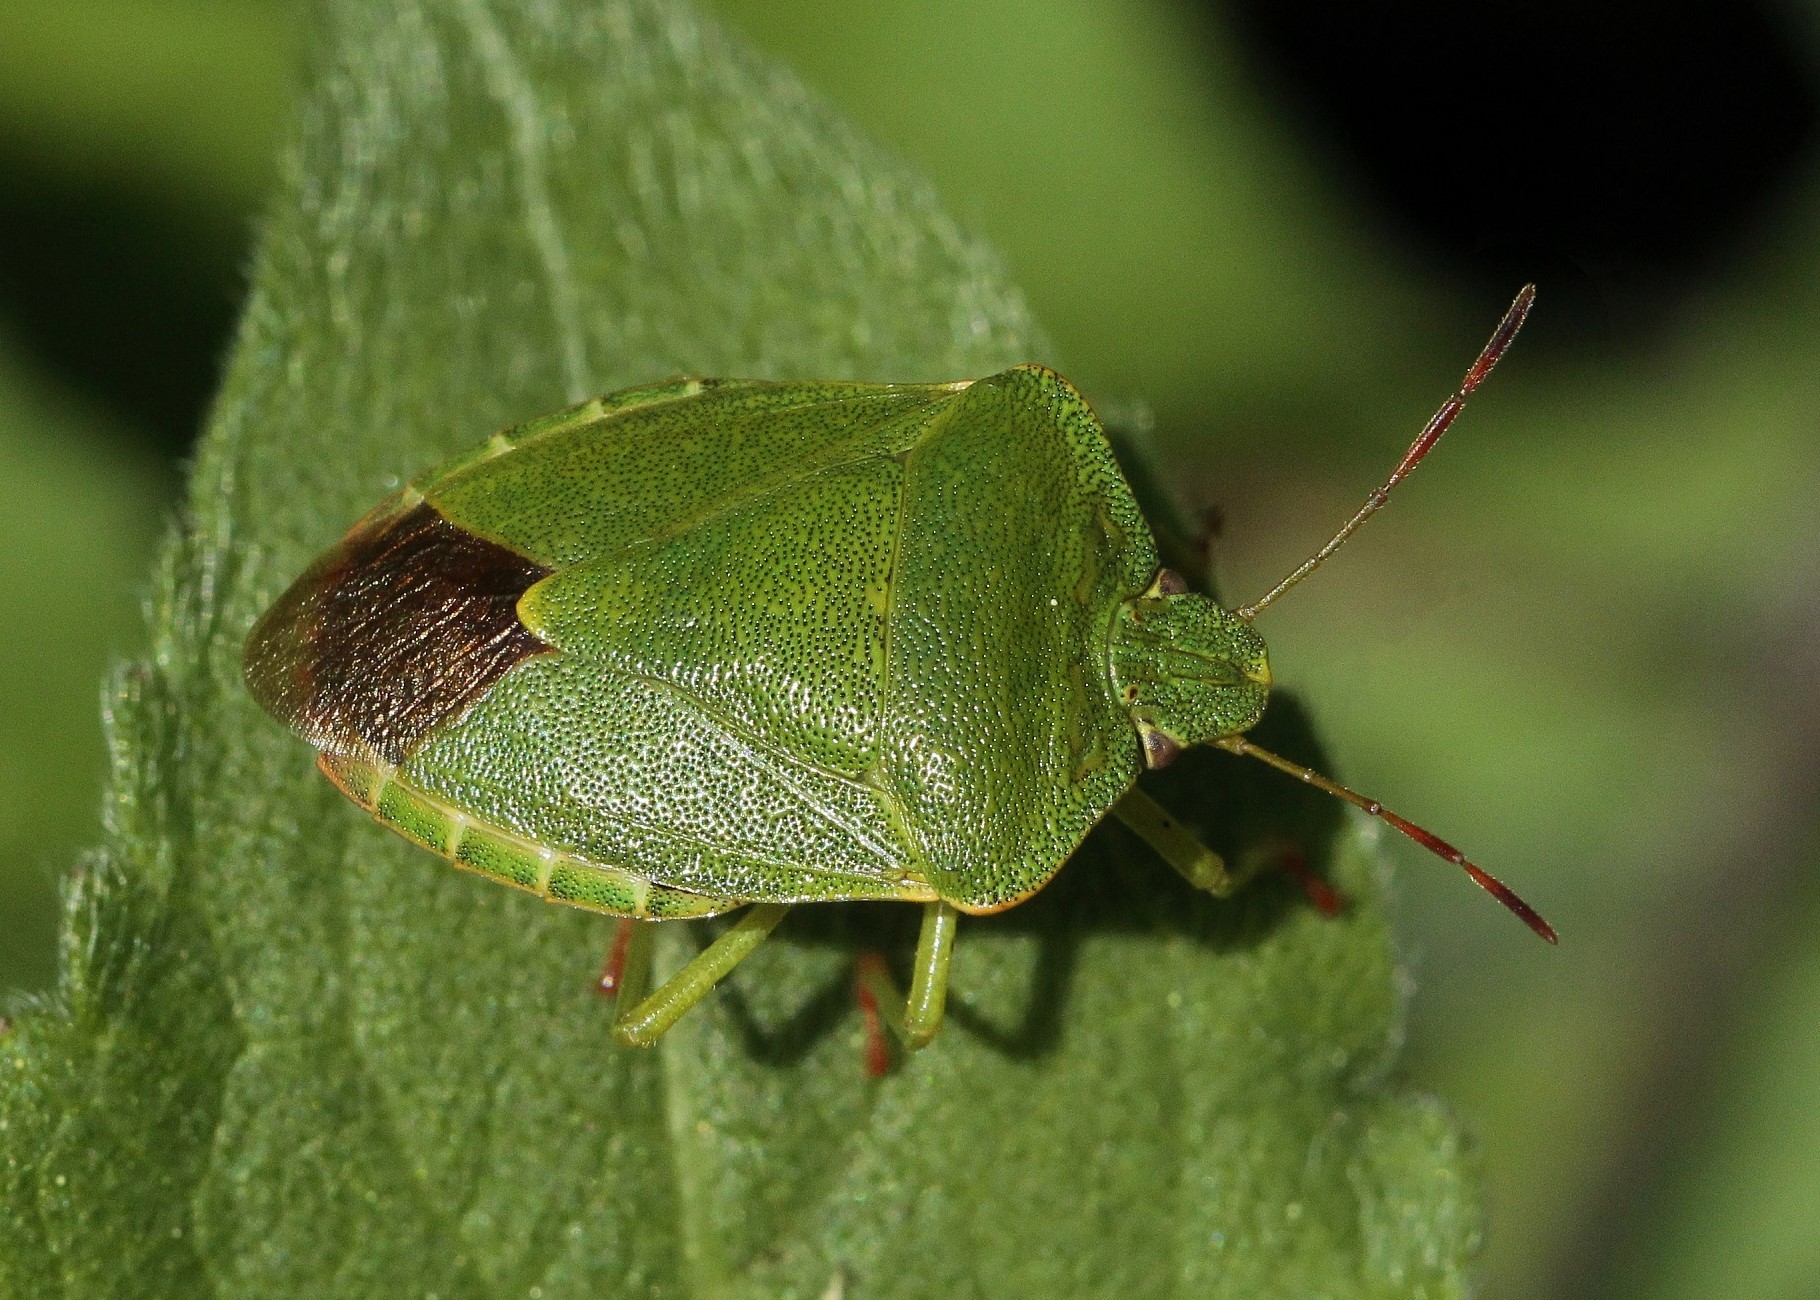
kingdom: Animalia
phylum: Arthropoda
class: Insecta
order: Hemiptera
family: Pentatomidae
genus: Palomena
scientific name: Palomena prasina
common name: Green shieldbug
